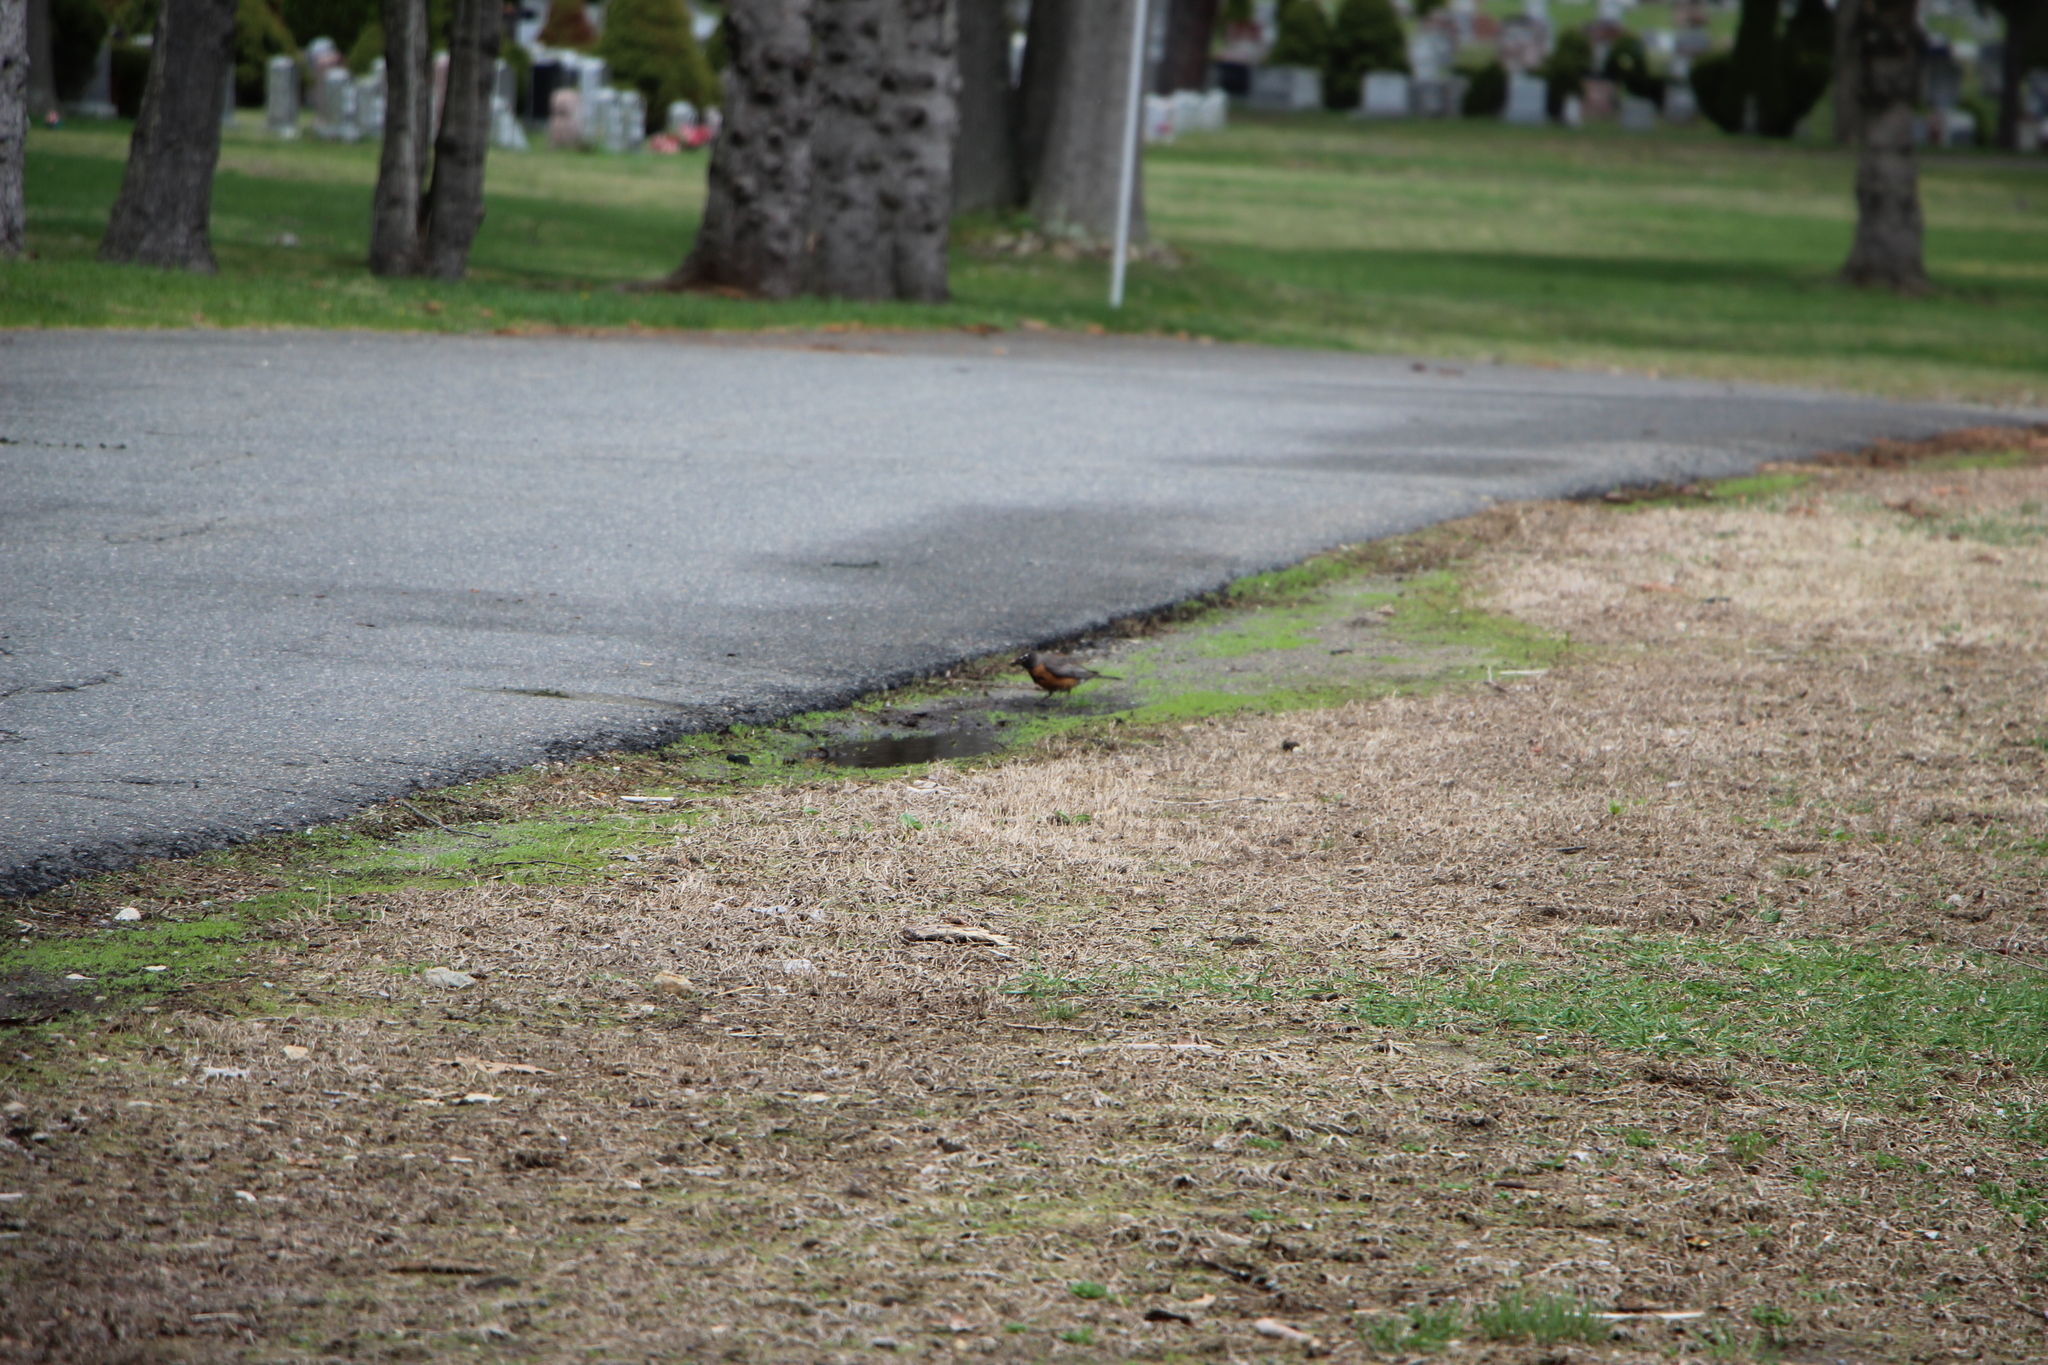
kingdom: Animalia
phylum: Chordata
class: Aves
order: Passeriformes
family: Turdidae
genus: Turdus
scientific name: Turdus migratorius
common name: American robin
